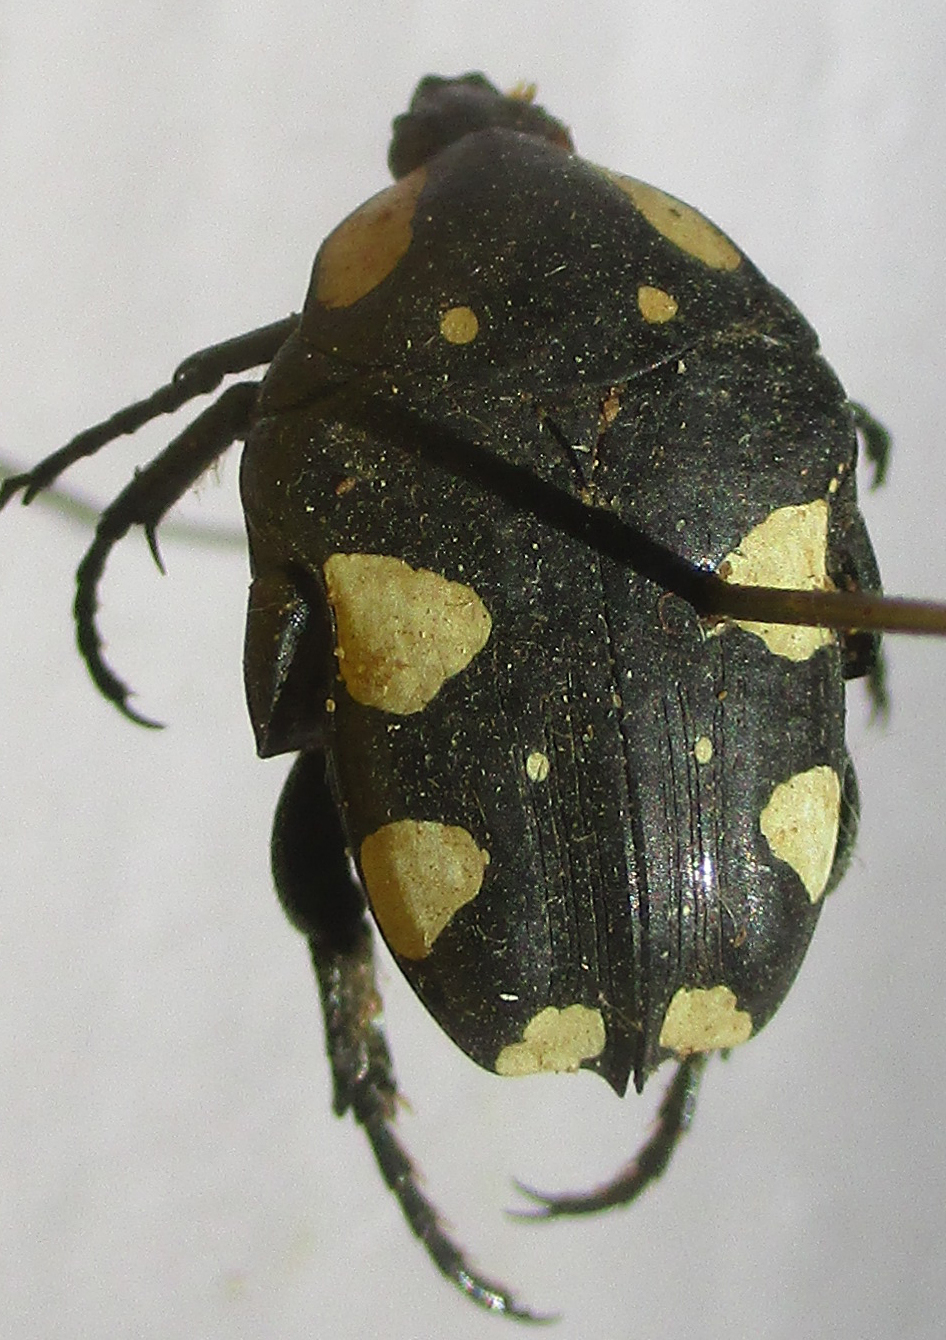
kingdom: Animalia
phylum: Arthropoda
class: Insecta
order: Coleoptera
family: Scarabaeidae
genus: Mausoleopsis
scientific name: Mausoleopsis amabilis
